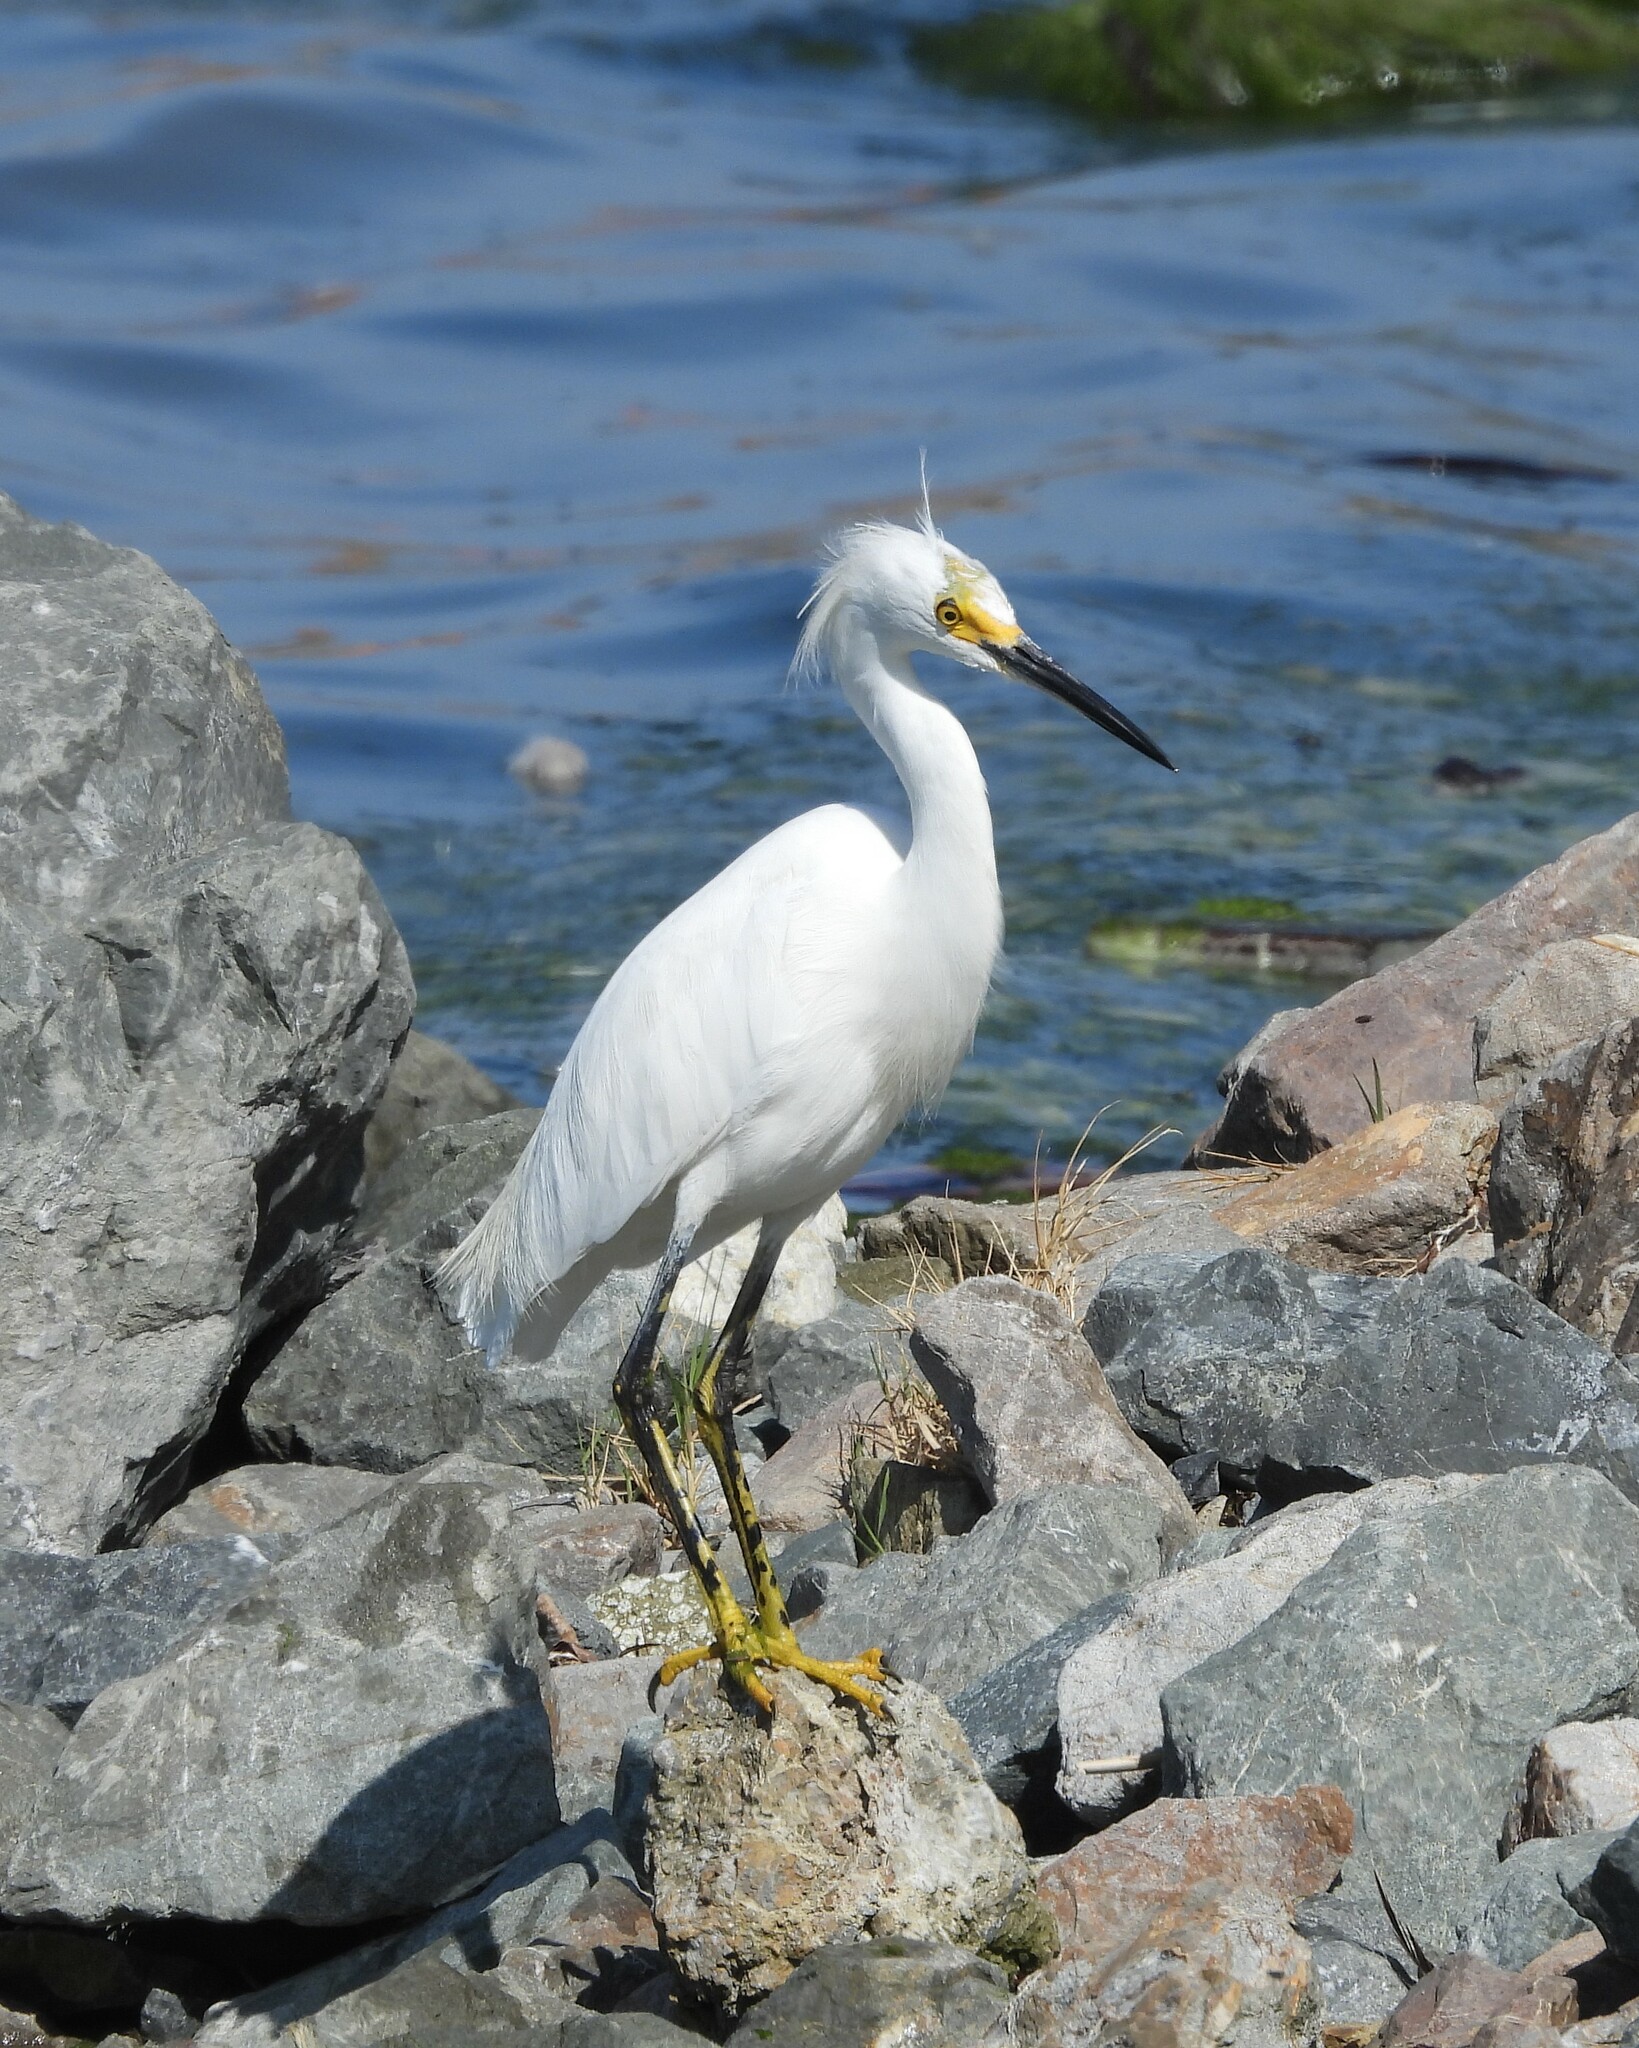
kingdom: Animalia
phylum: Chordata
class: Aves
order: Pelecaniformes
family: Ardeidae
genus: Egretta
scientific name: Egretta thula
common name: Snowy egret
